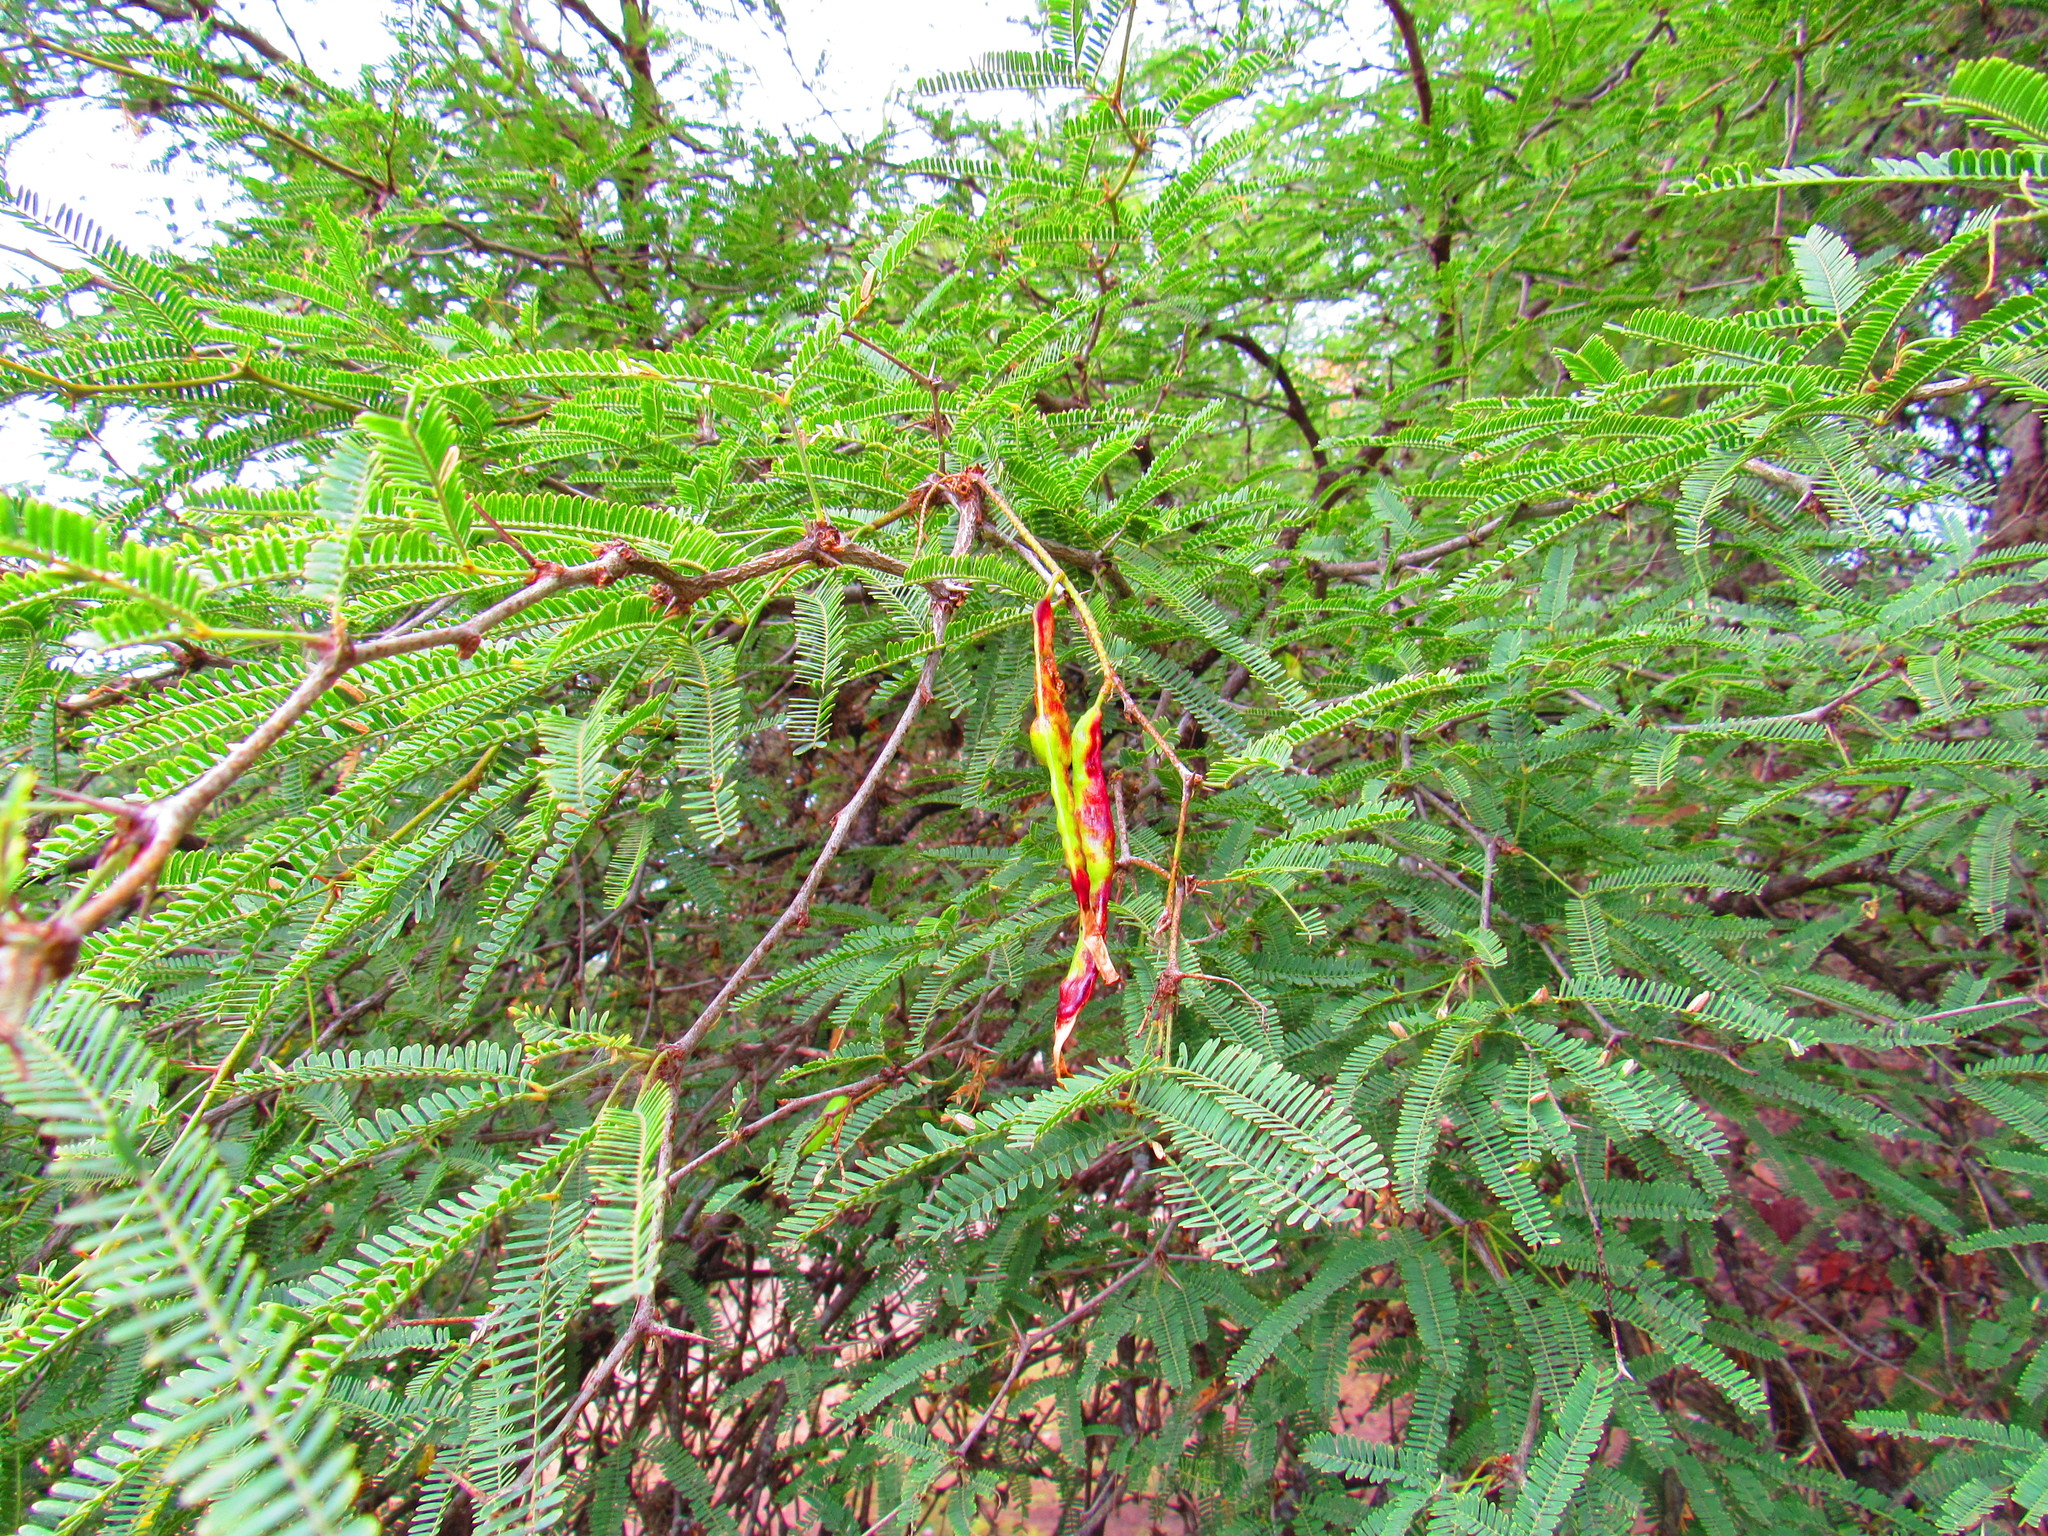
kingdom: Plantae
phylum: Tracheophyta
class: Magnoliopsida
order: Fabales
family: Fabaceae
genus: Prosopis
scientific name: Prosopis laevigata
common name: Smooth mesquite
